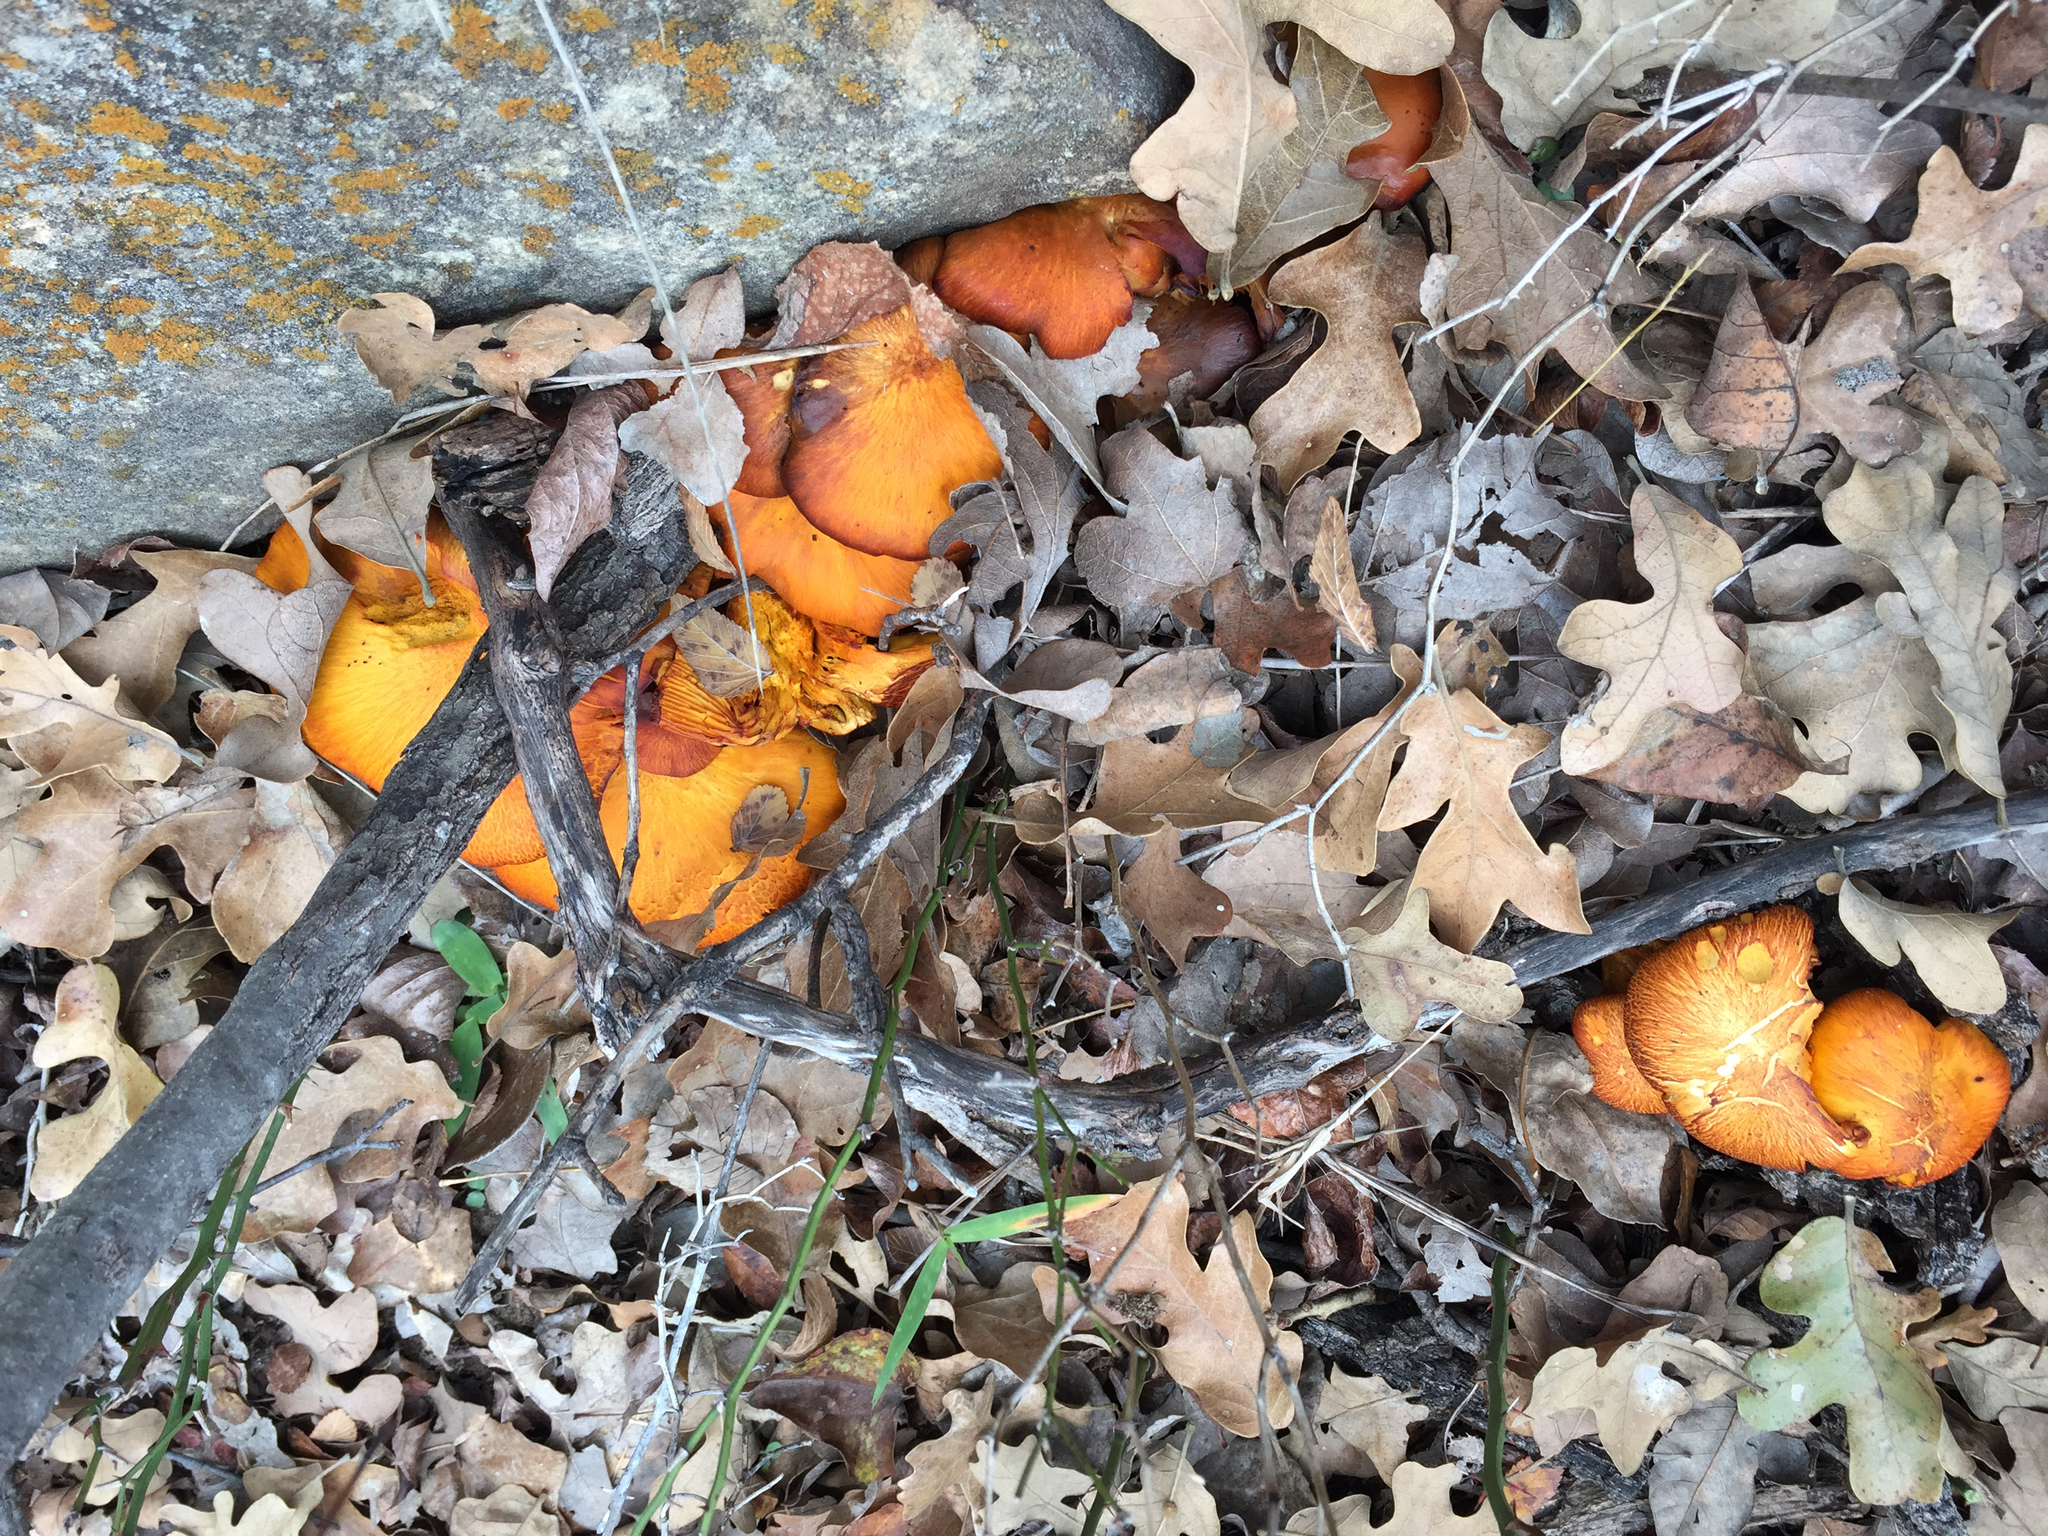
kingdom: Fungi
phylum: Basidiomycota
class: Agaricomycetes
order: Agaricales
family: Omphalotaceae
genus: Omphalotus
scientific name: Omphalotus subilludens
